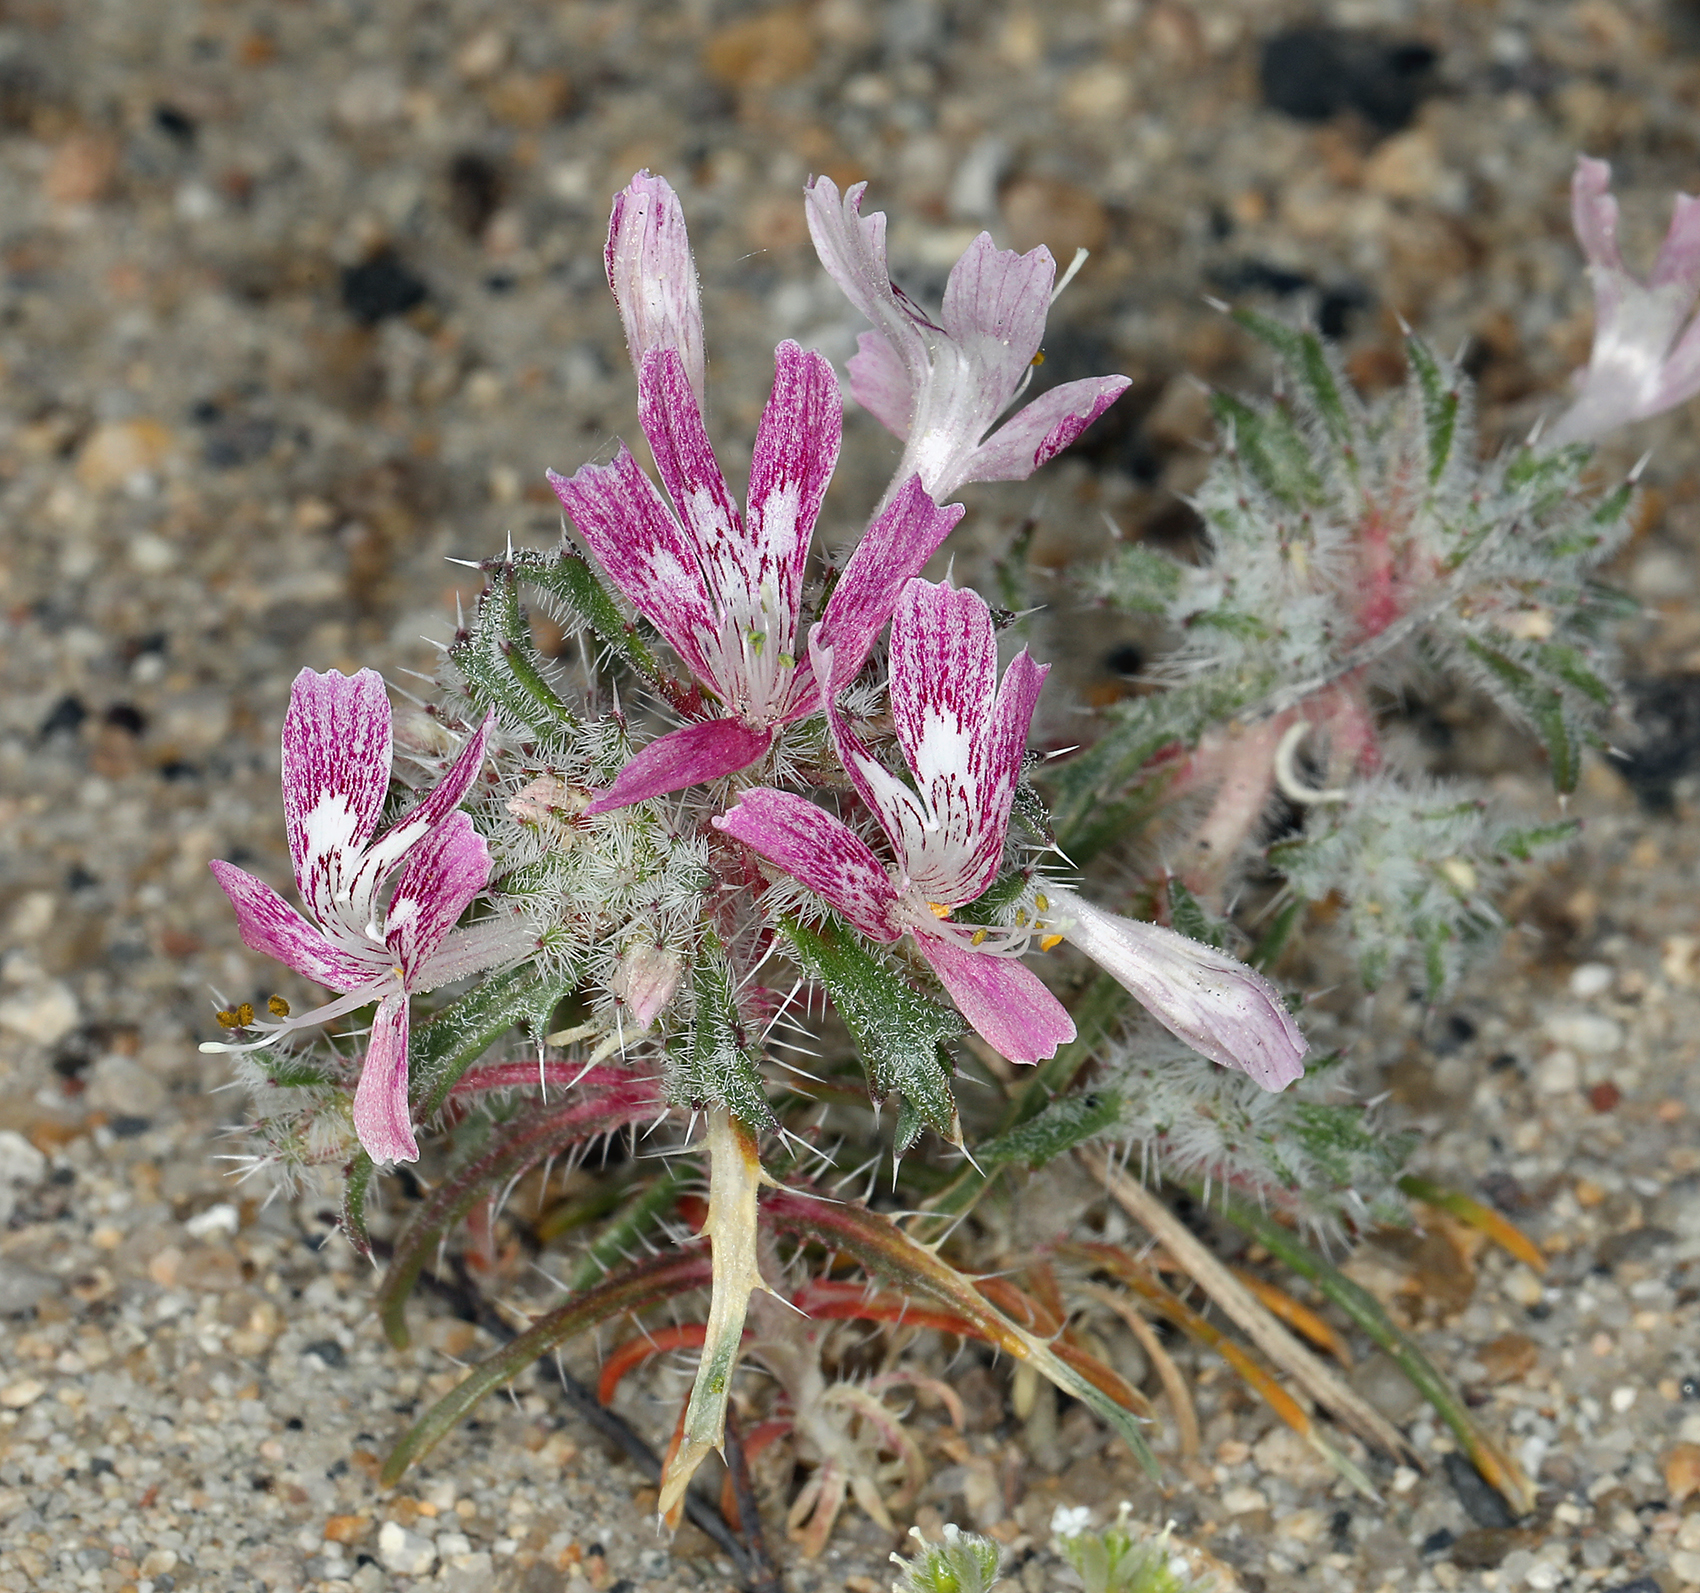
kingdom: Plantae
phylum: Tracheophyta
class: Magnoliopsida
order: Ericales
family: Polemoniaceae
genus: Loeseliastrum
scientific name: Loeseliastrum matthewsii
